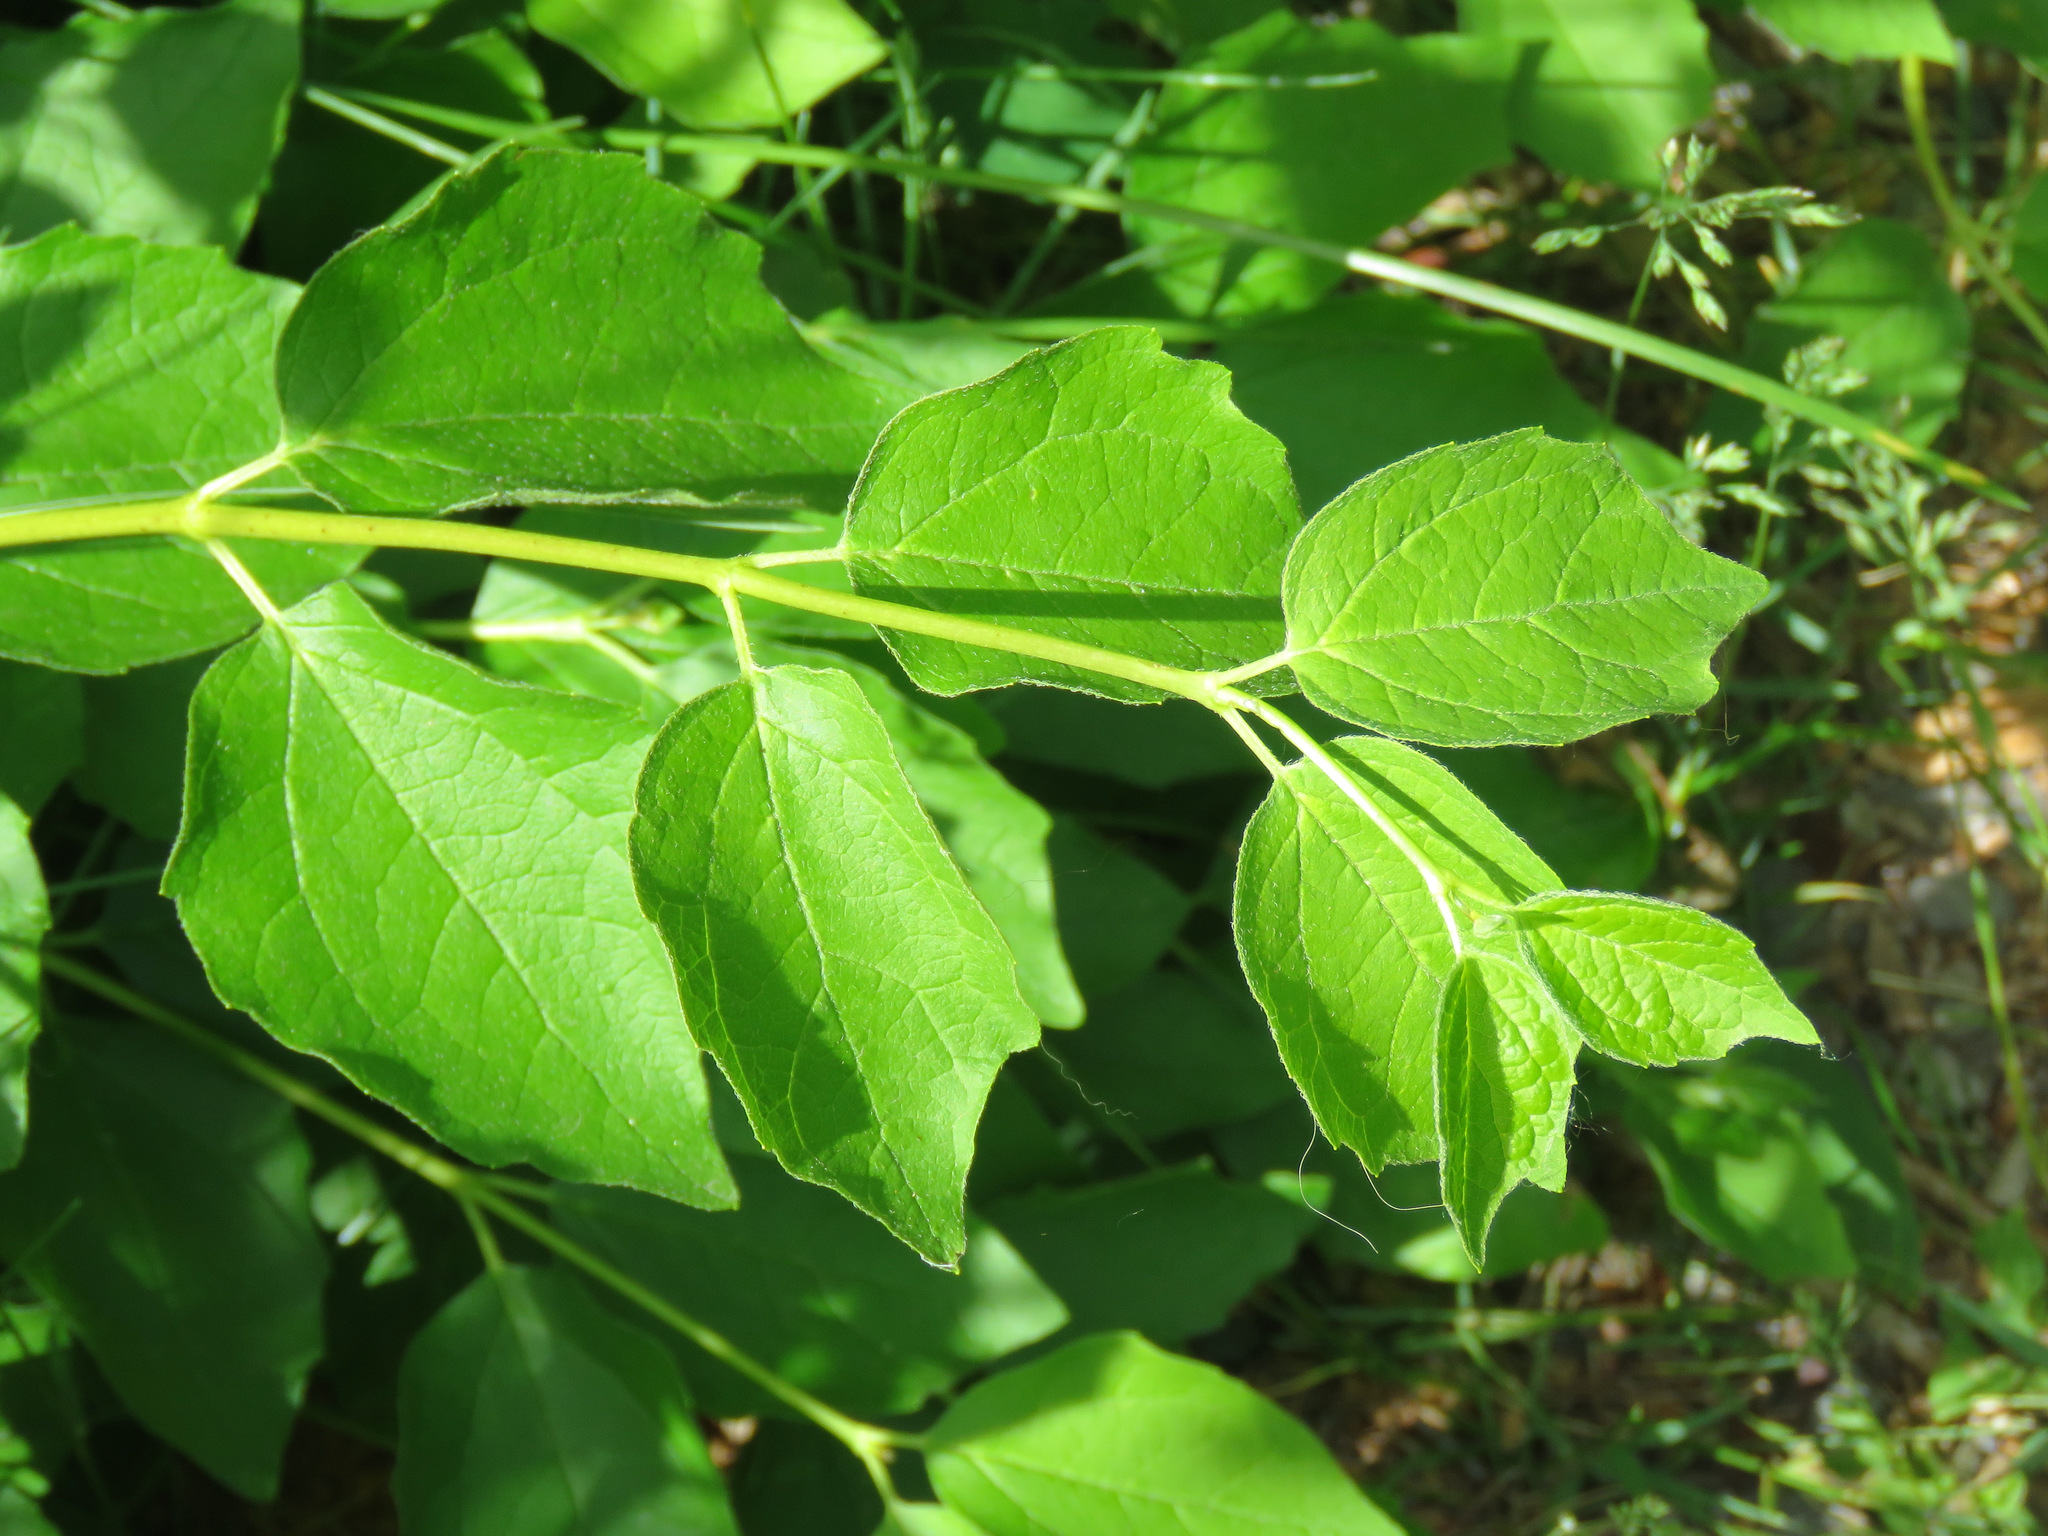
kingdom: Plantae
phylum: Tracheophyta
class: Magnoliopsida
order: Cornales
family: Hydrangeaceae
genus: Philadelphus
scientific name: Philadelphus lewisii
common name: Lewis's mock orange
